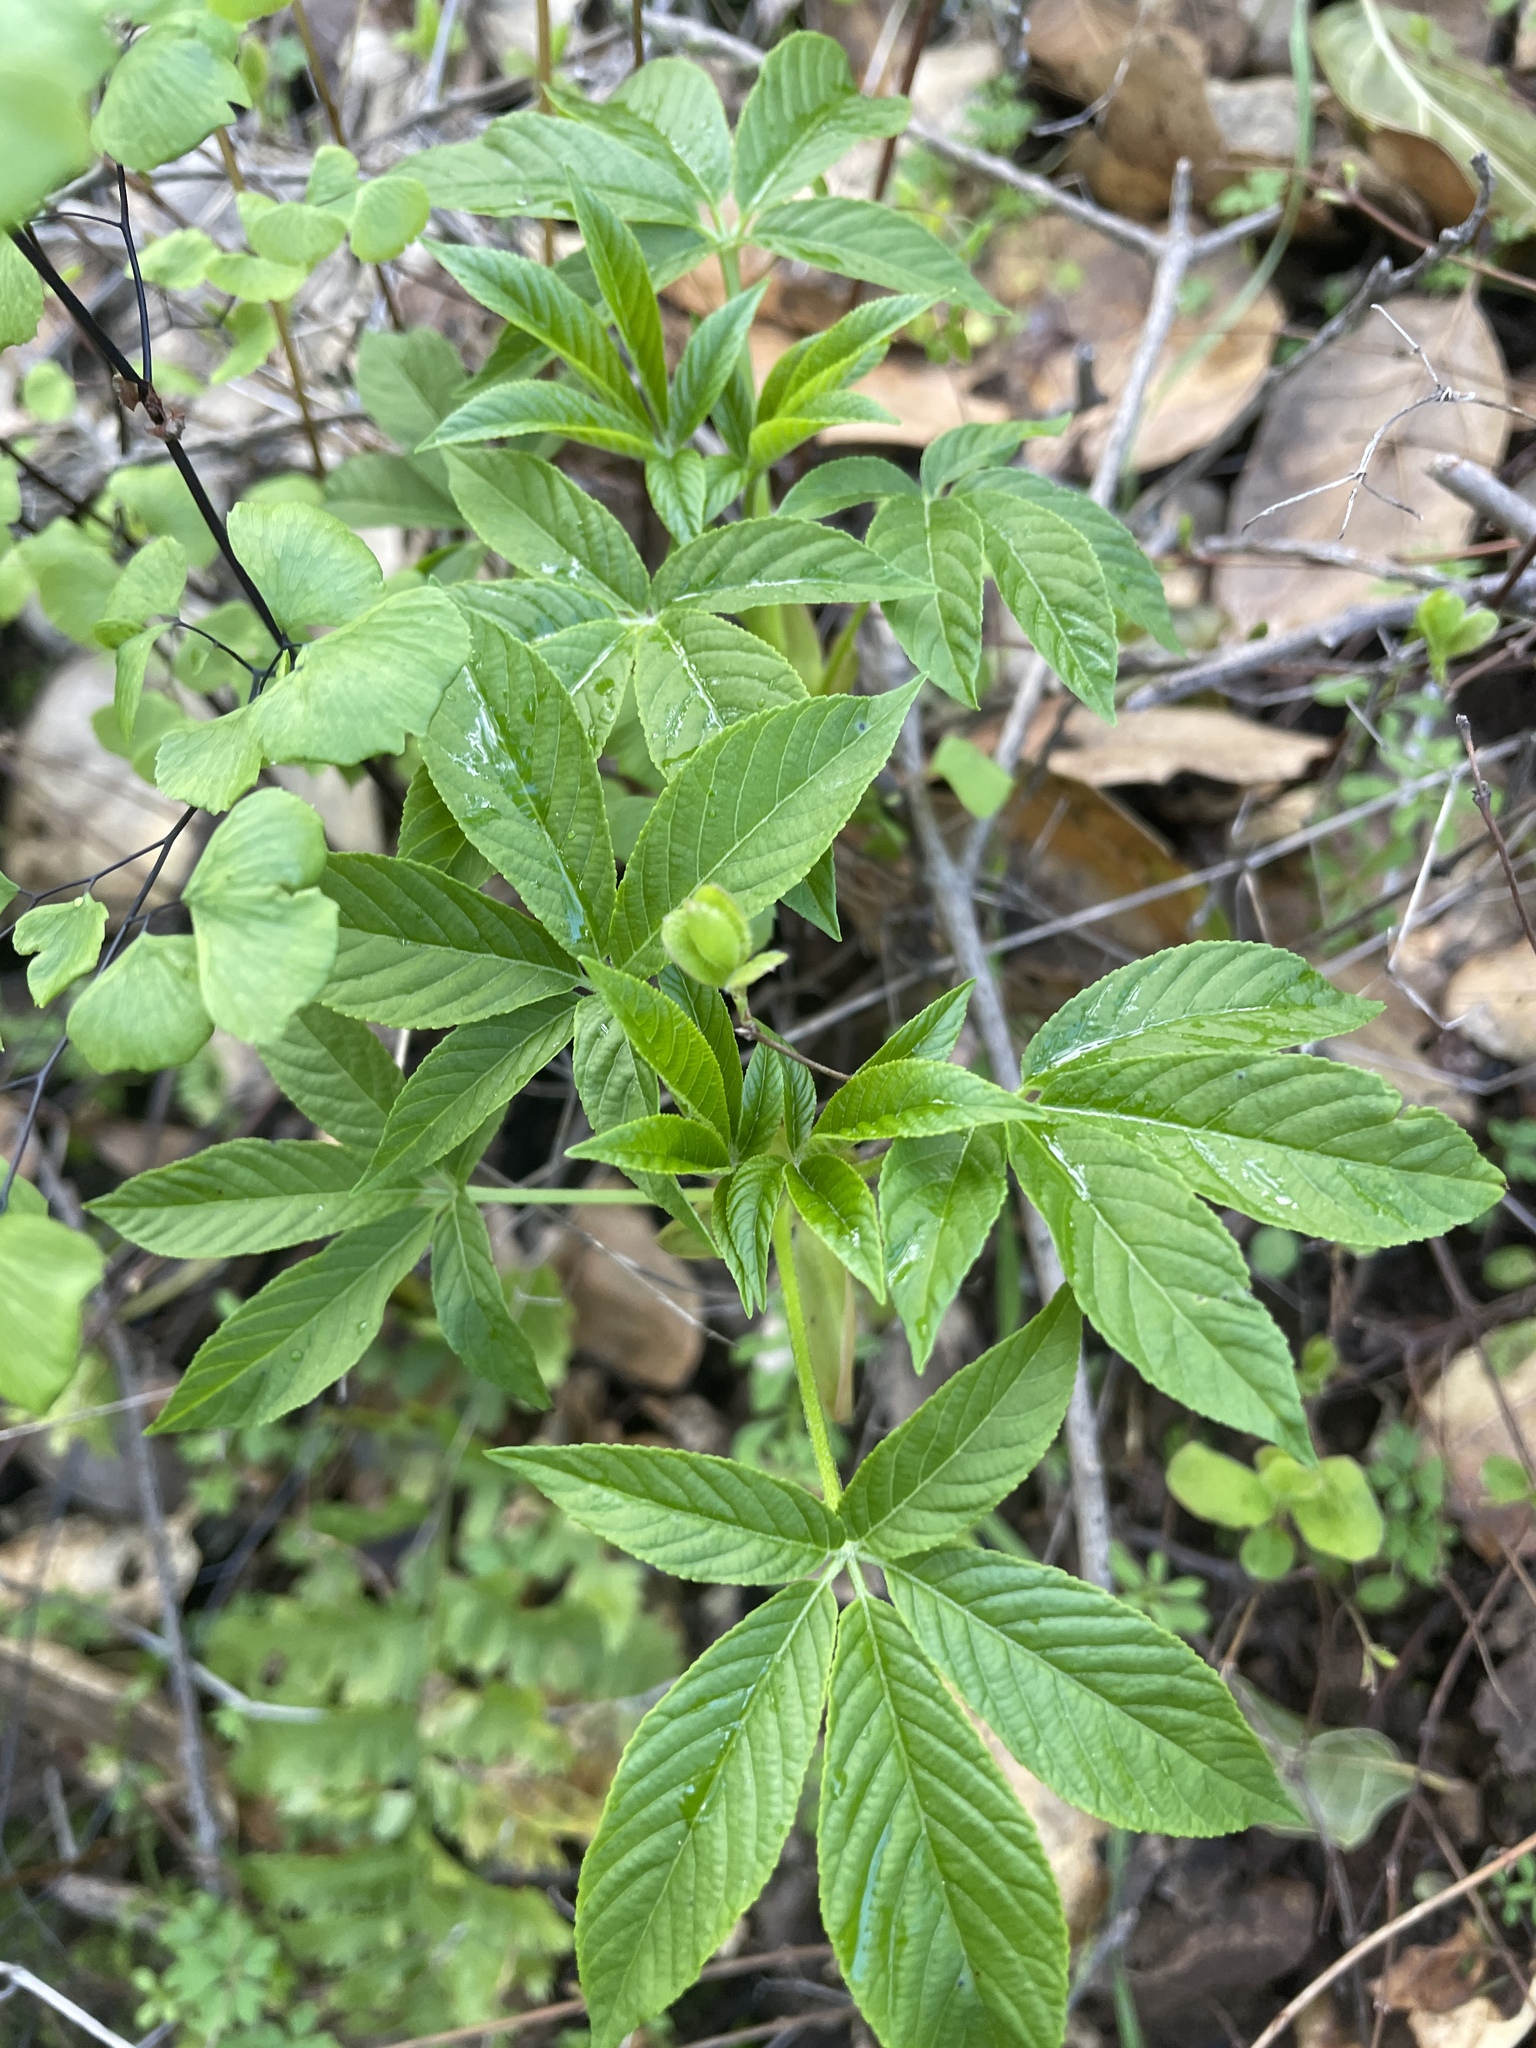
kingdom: Plantae
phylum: Tracheophyta
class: Magnoliopsida
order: Sapindales
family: Sapindaceae
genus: Aesculus
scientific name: Aesculus californica
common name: California buckeye
